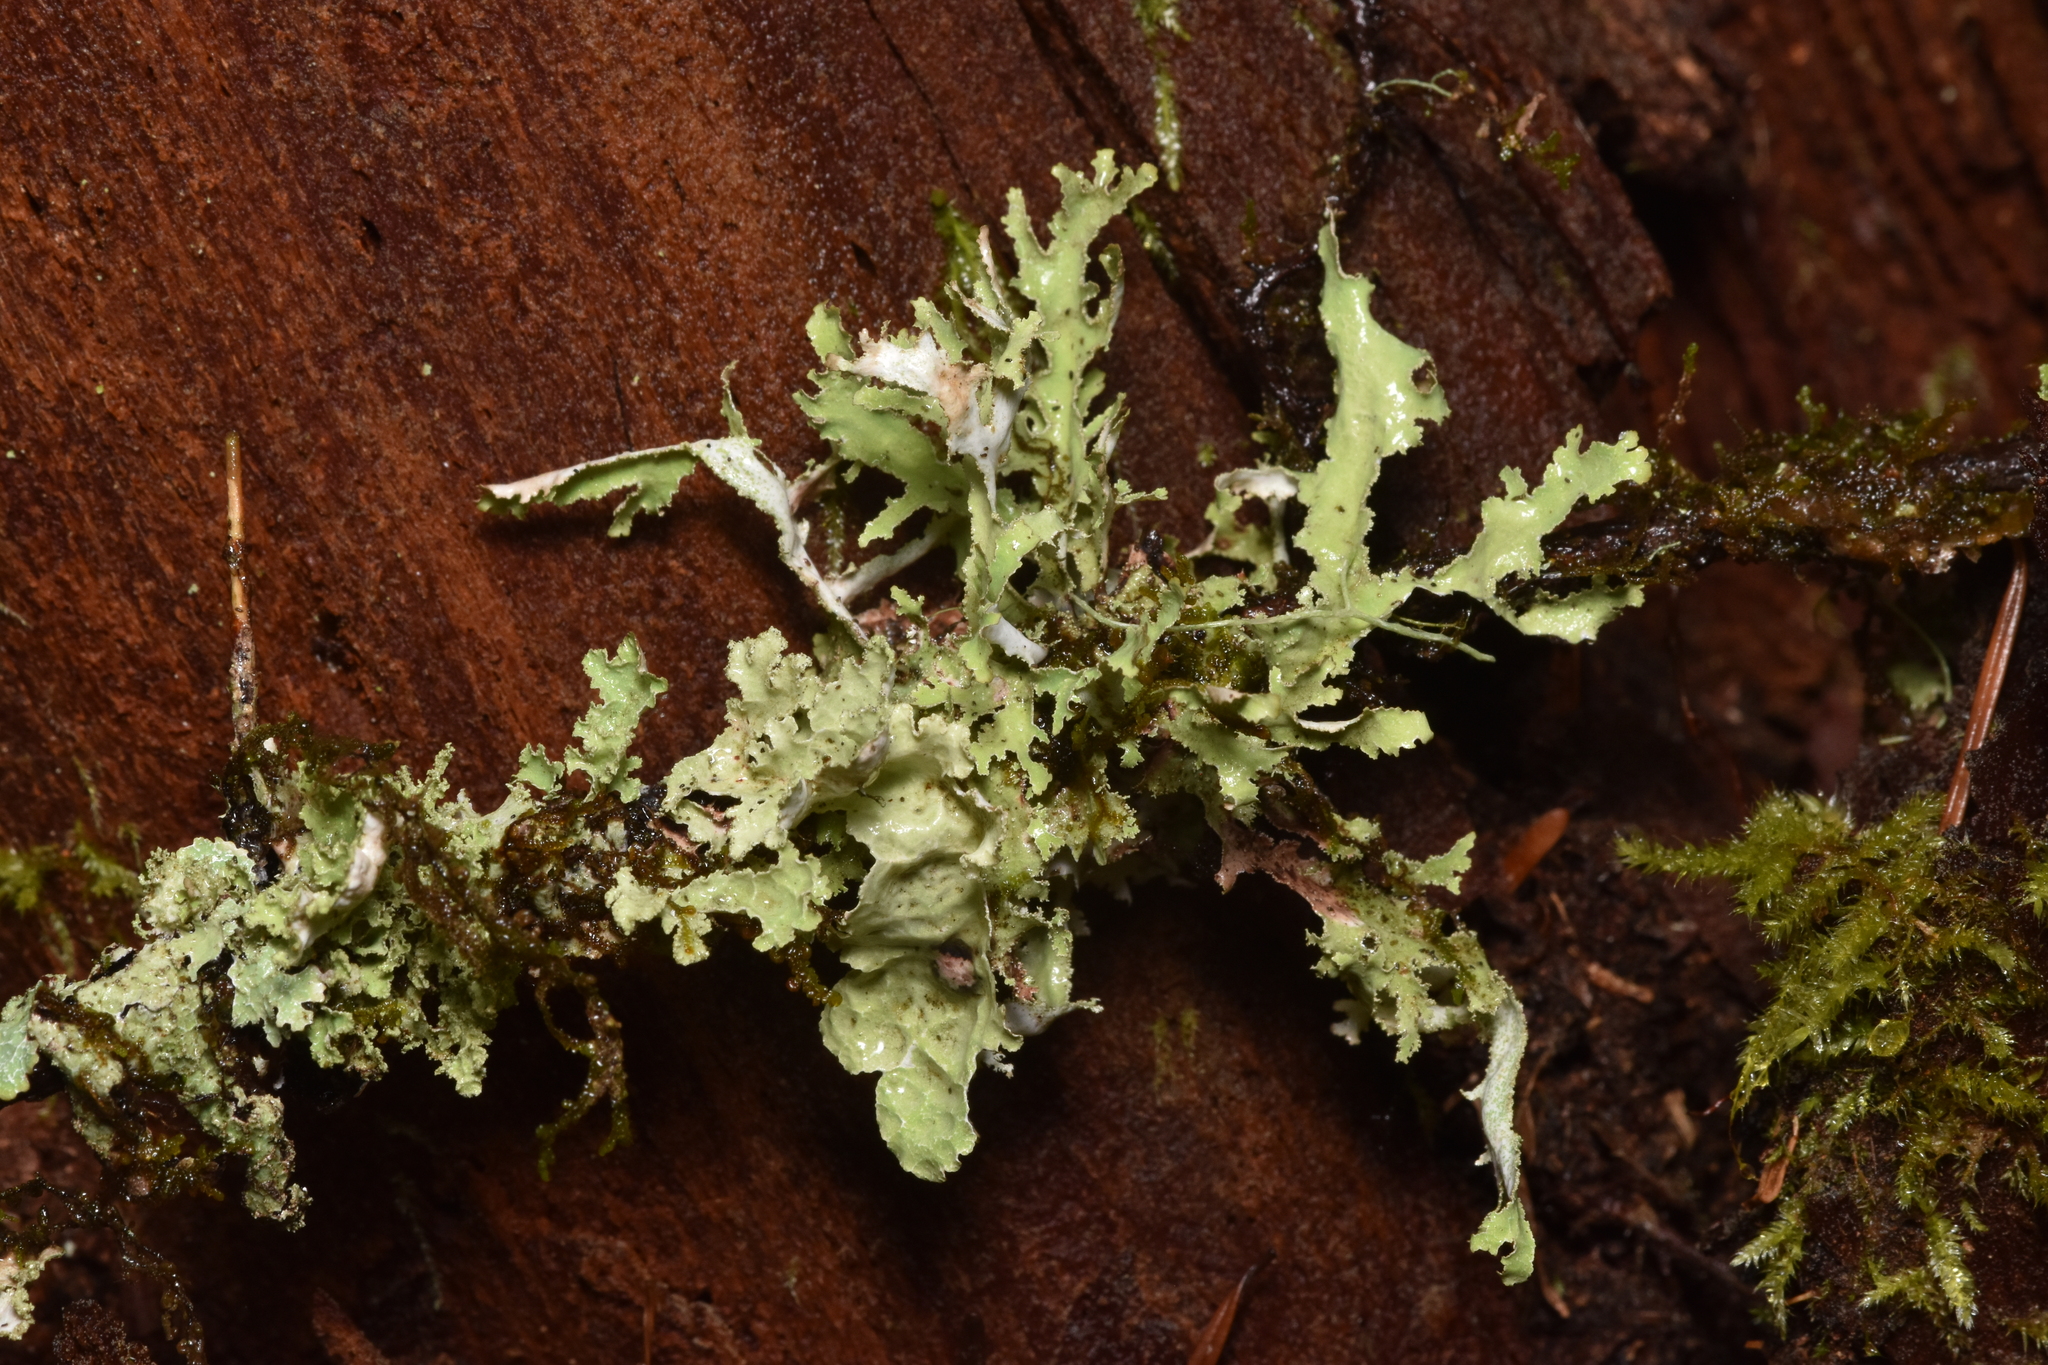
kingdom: Fungi
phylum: Ascomycota
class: Lecanoromycetes
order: Lecanorales
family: Parmeliaceae
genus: Platismatia
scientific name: Platismatia herrei
